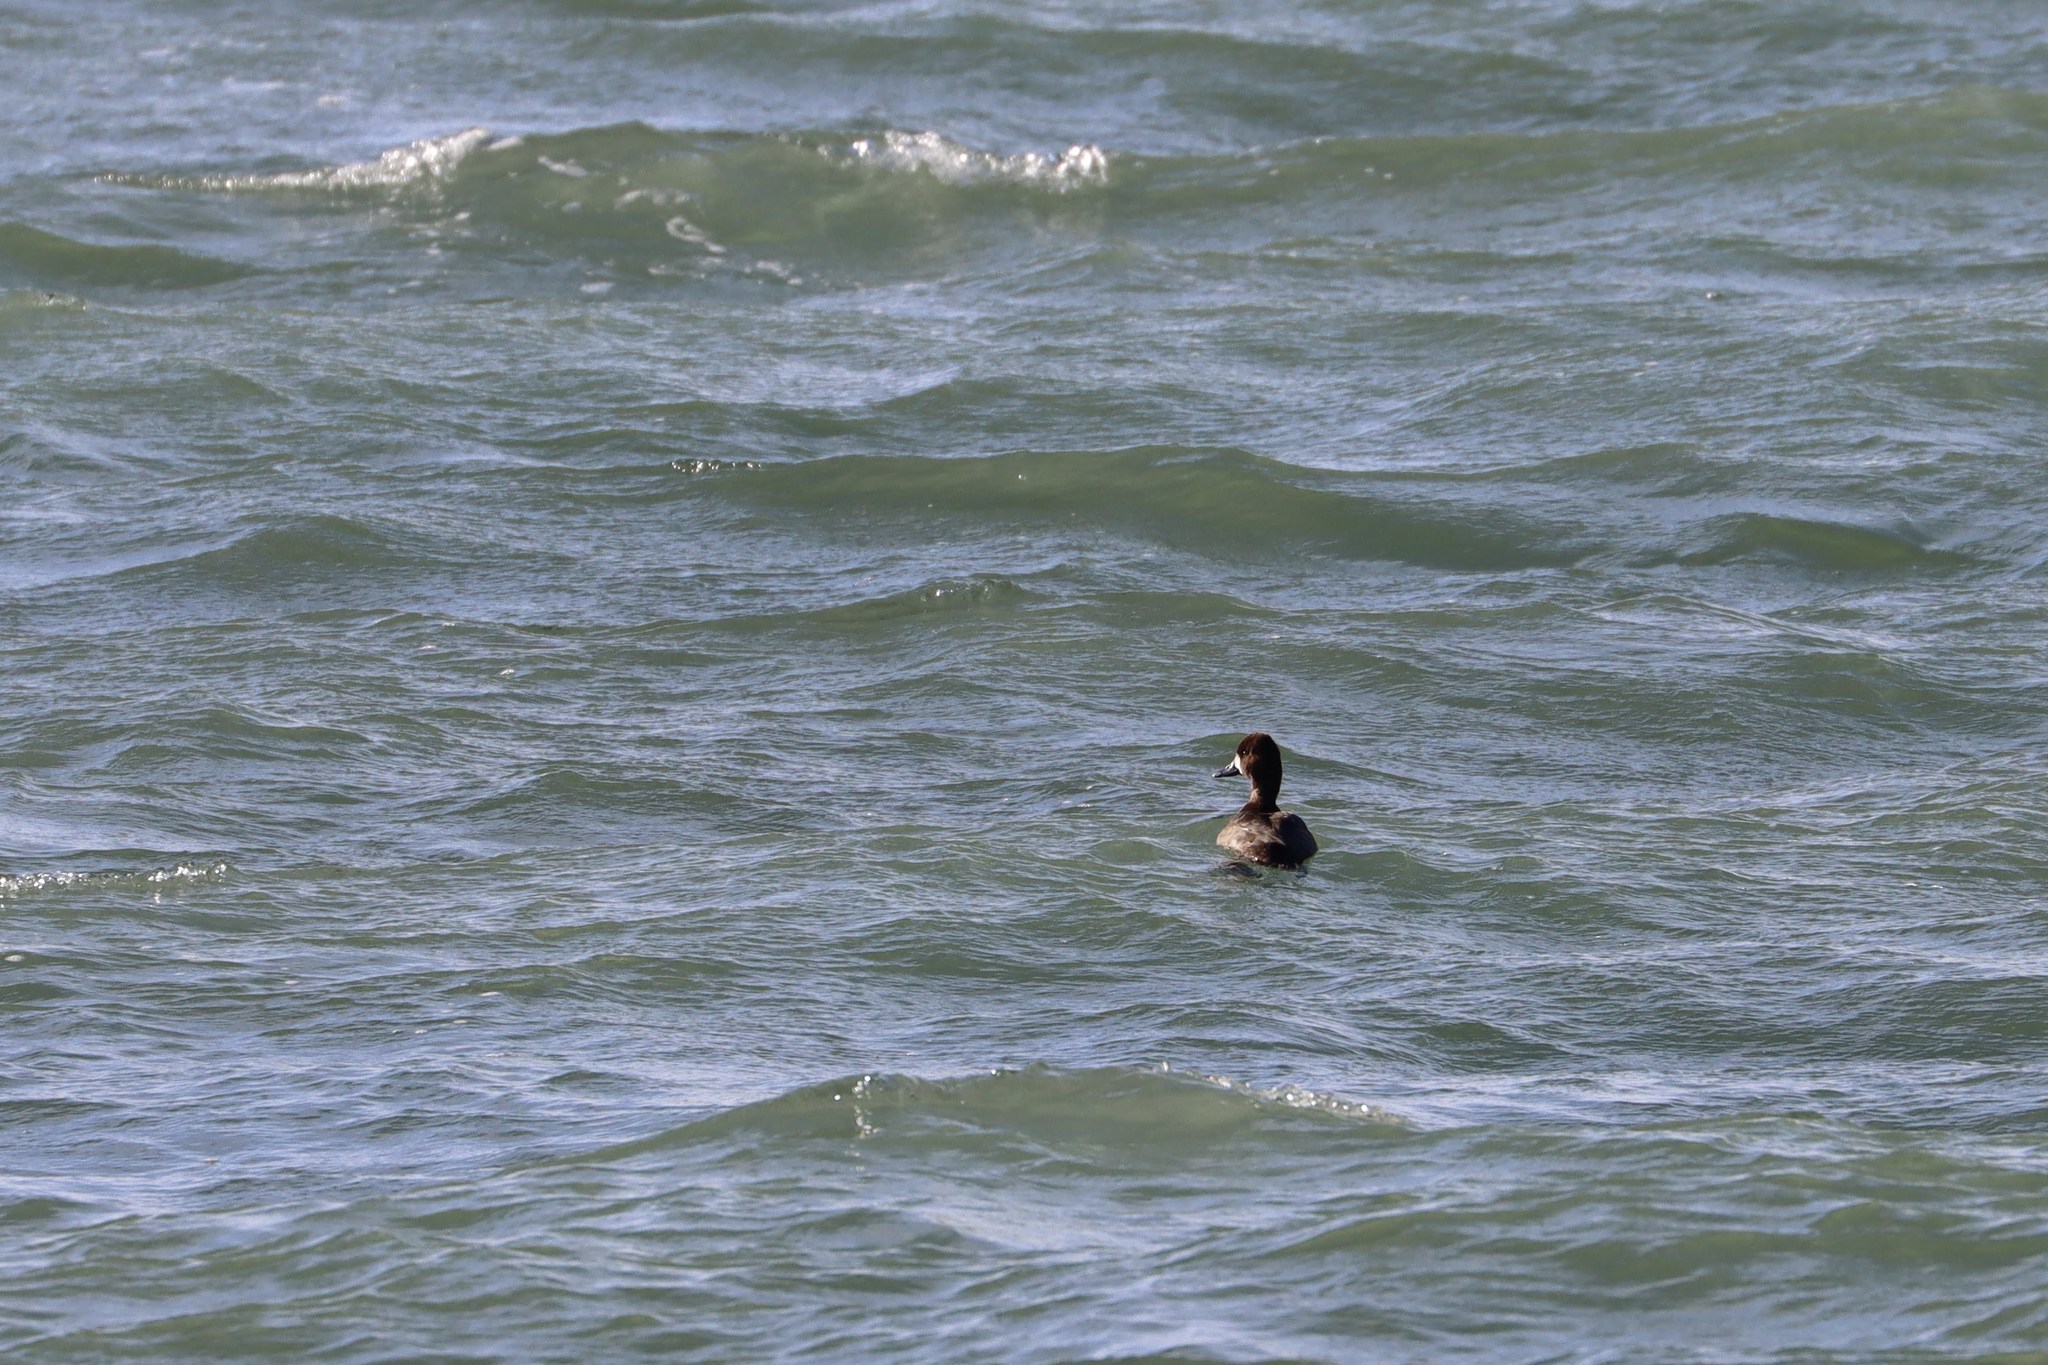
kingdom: Animalia
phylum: Chordata
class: Aves
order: Anseriformes
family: Anatidae
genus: Aythya
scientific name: Aythya affinis
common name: Lesser scaup
